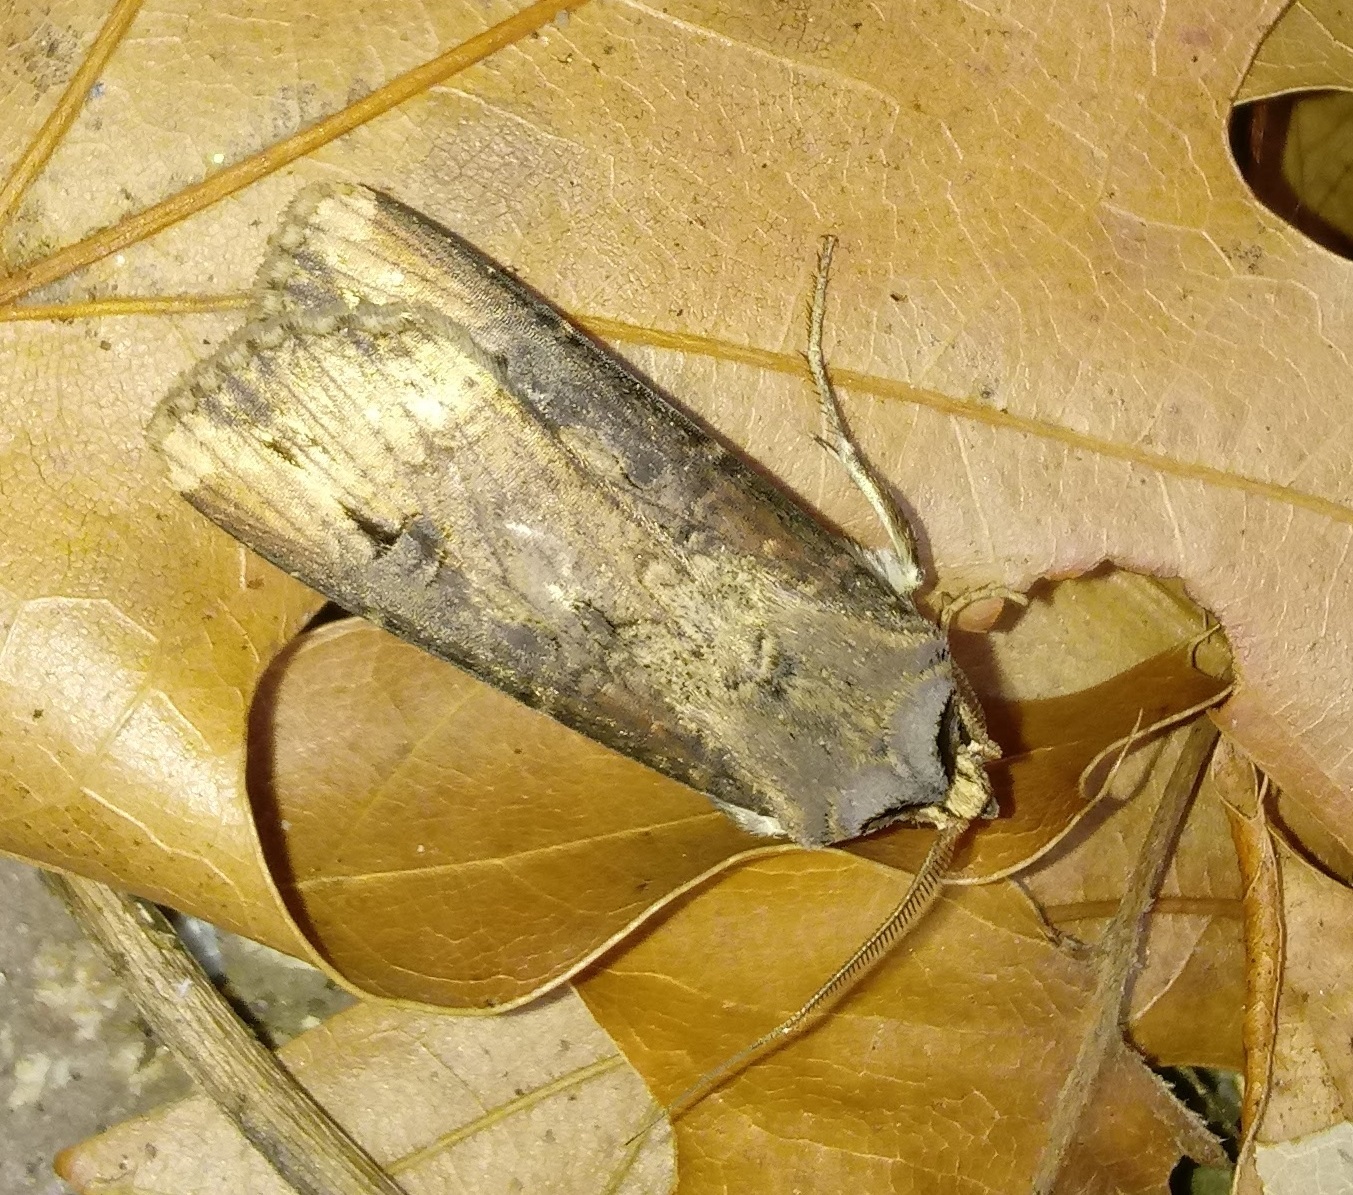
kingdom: Animalia
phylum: Arthropoda
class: Insecta
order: Lepidoptera
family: Noctuidae
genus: Agrotis
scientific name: Agrotis ipsilon
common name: Dark sword-grass
